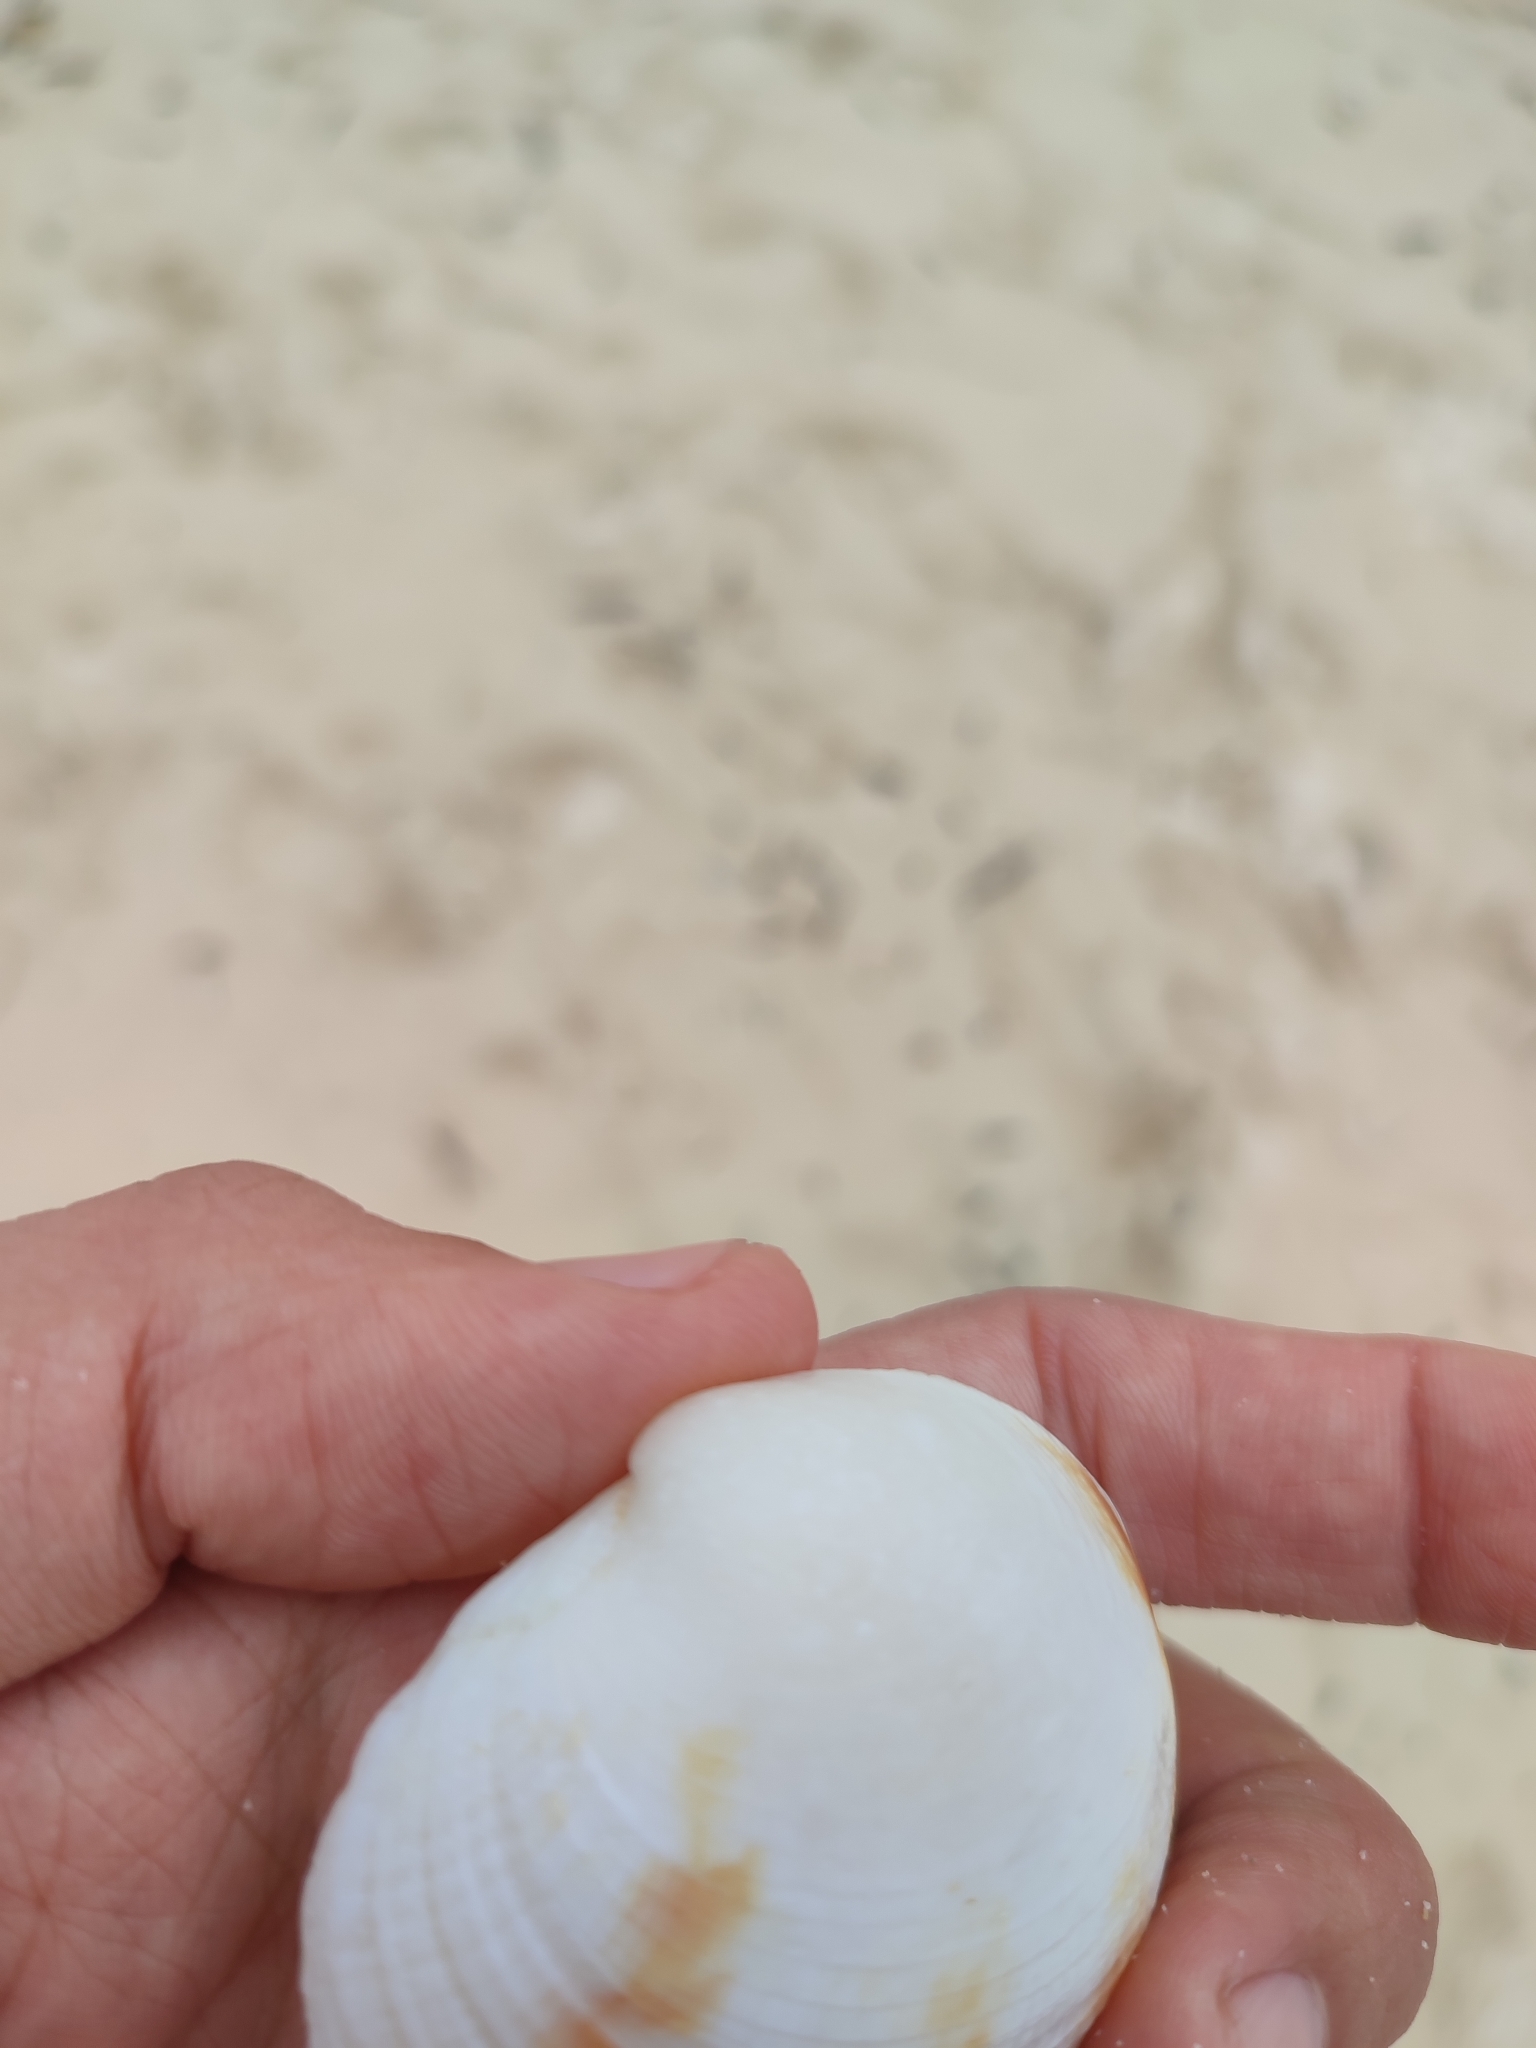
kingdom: Animalia
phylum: Mollusca
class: Bivalvia
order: Venerida
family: Veneridae
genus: Periglypta
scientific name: Periglypta puerpera
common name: Youthful venus
